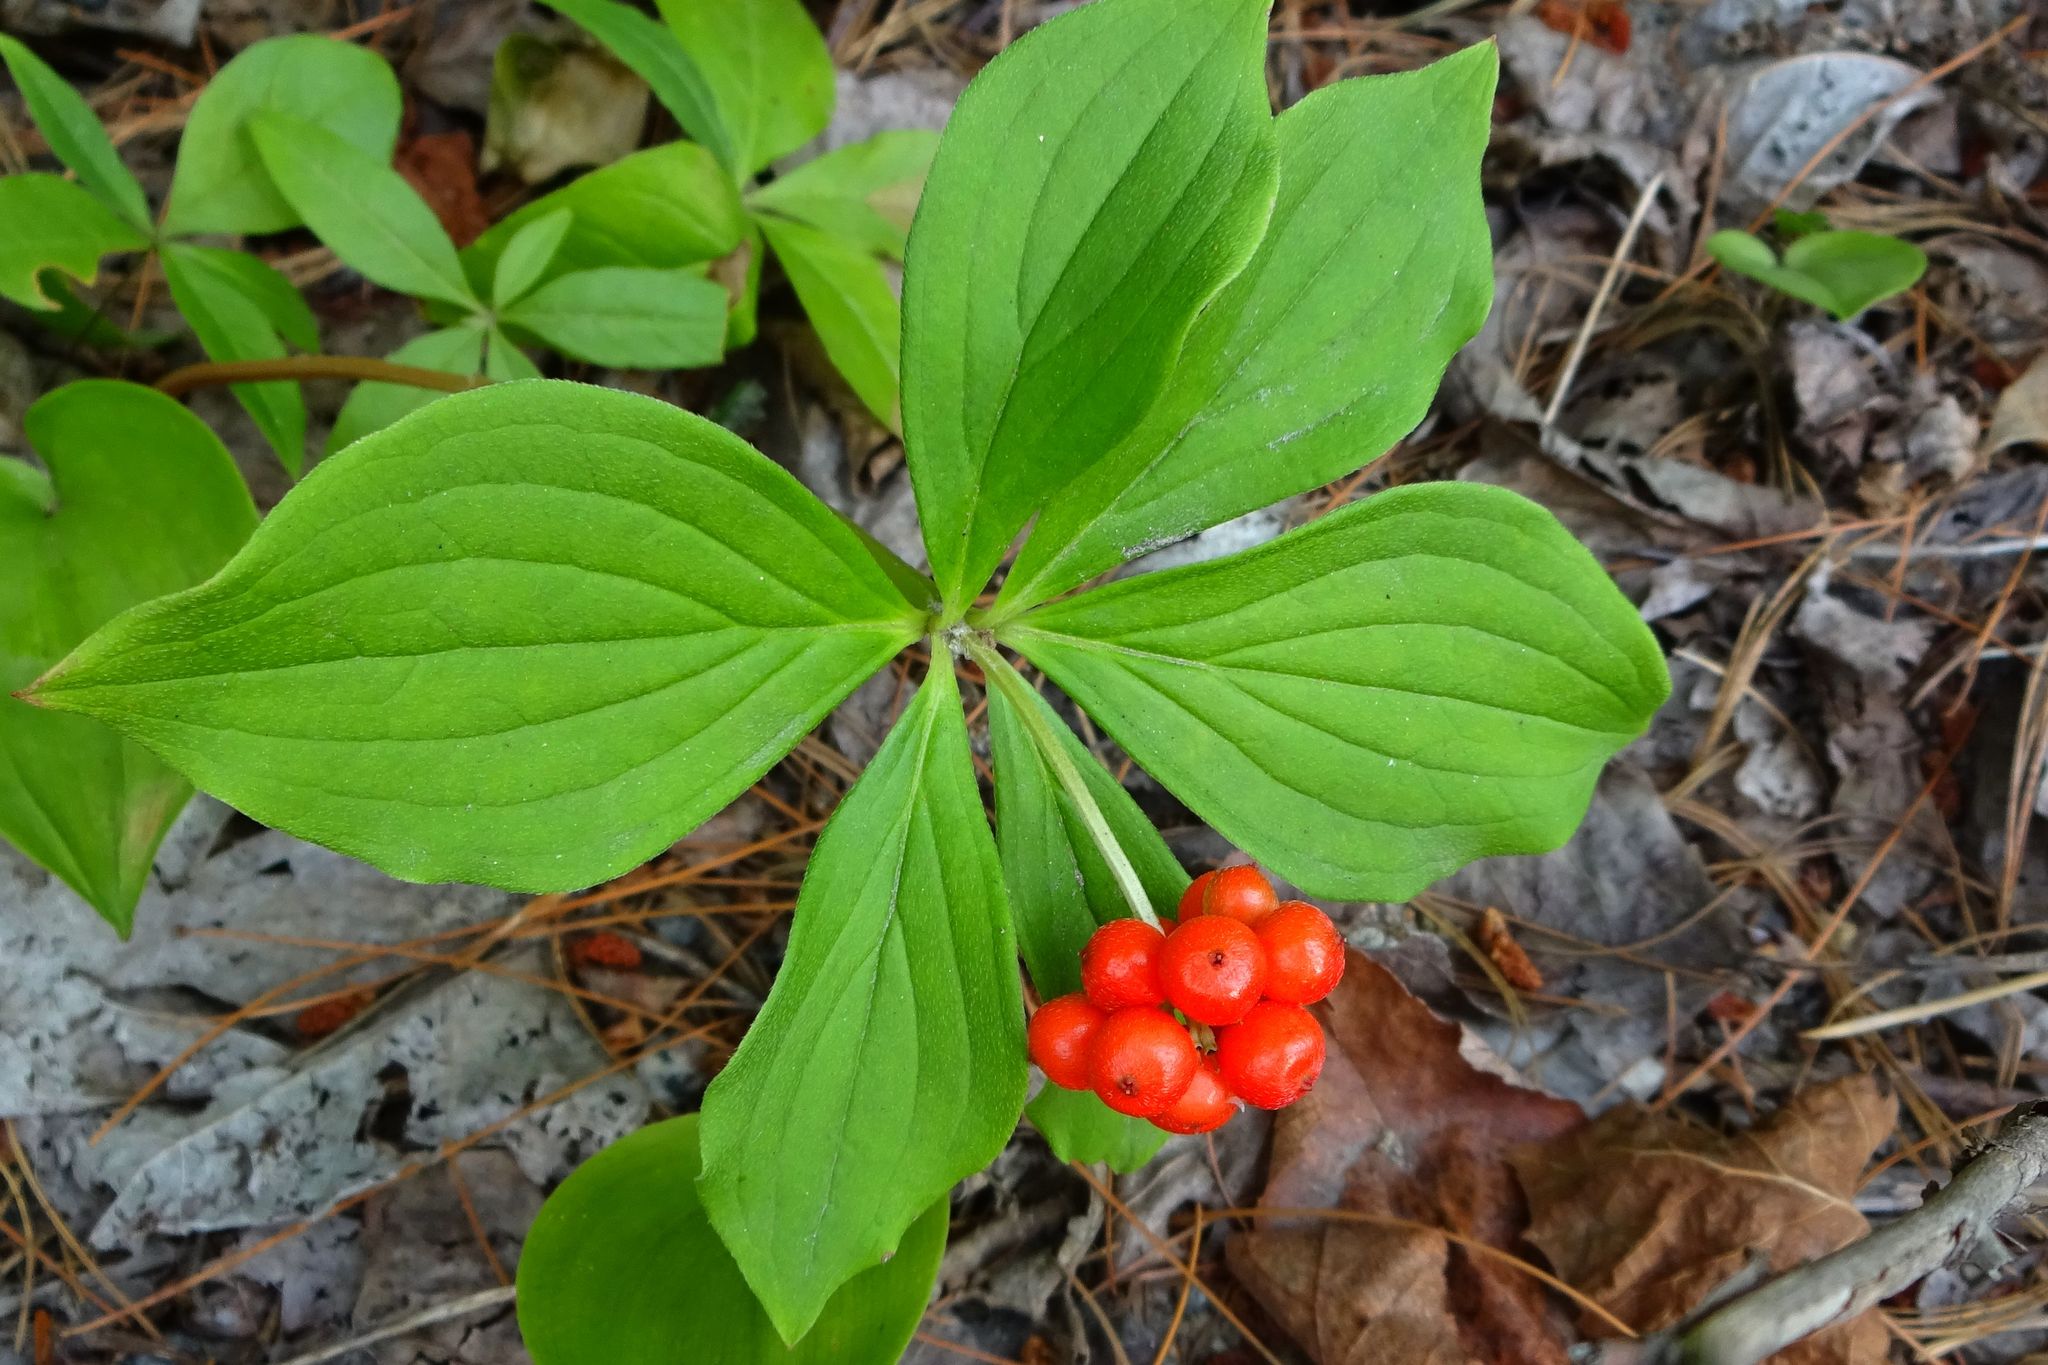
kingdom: Plantae
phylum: Tracheophyta
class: Magnoliopsida
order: Cornales
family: Cornaceae
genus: Cornus
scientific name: Cornus canadensis
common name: Creeping dogwood
